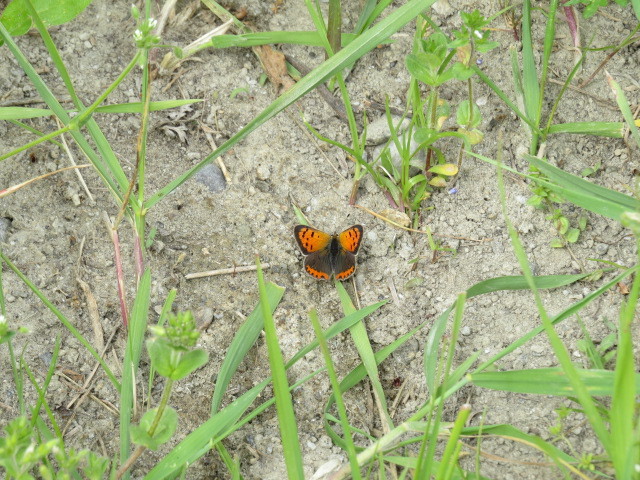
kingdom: Animalia
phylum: Arthropoda
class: Insecta
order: Lepidoptera
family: Lycaenidae
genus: Lycaena
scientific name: Lycaena phlaeas
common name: Small copper
